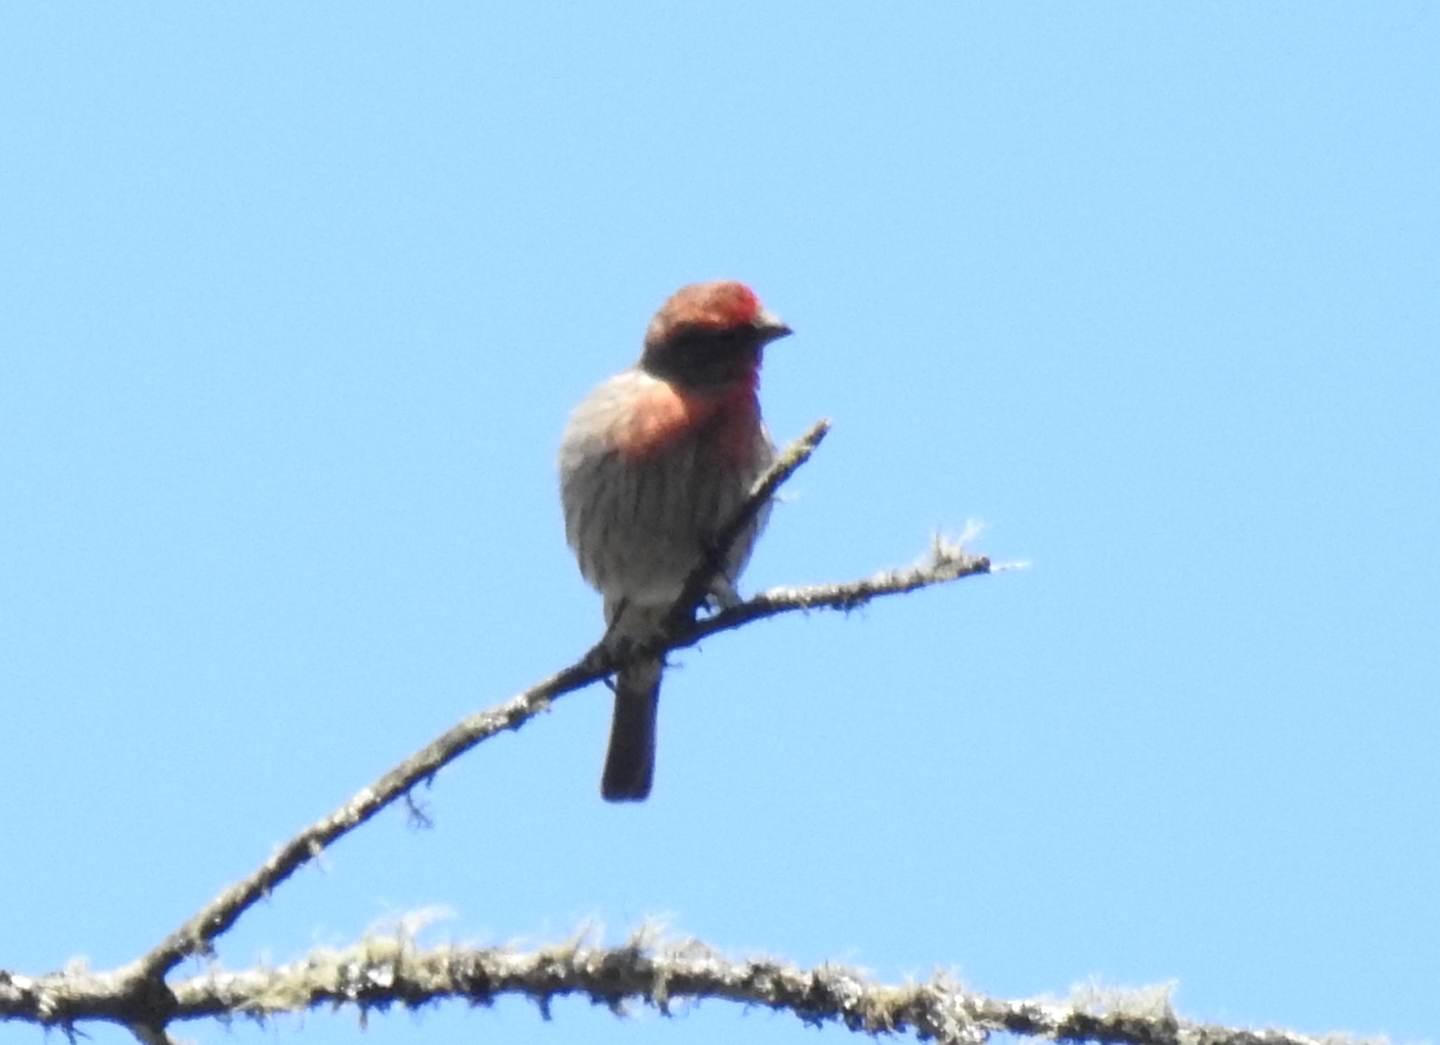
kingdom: Animalia
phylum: Chordata
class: Aves
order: Passeriformes
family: Fringillidae
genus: Haemorhous
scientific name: Haemorhous mexicanus
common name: House finch
